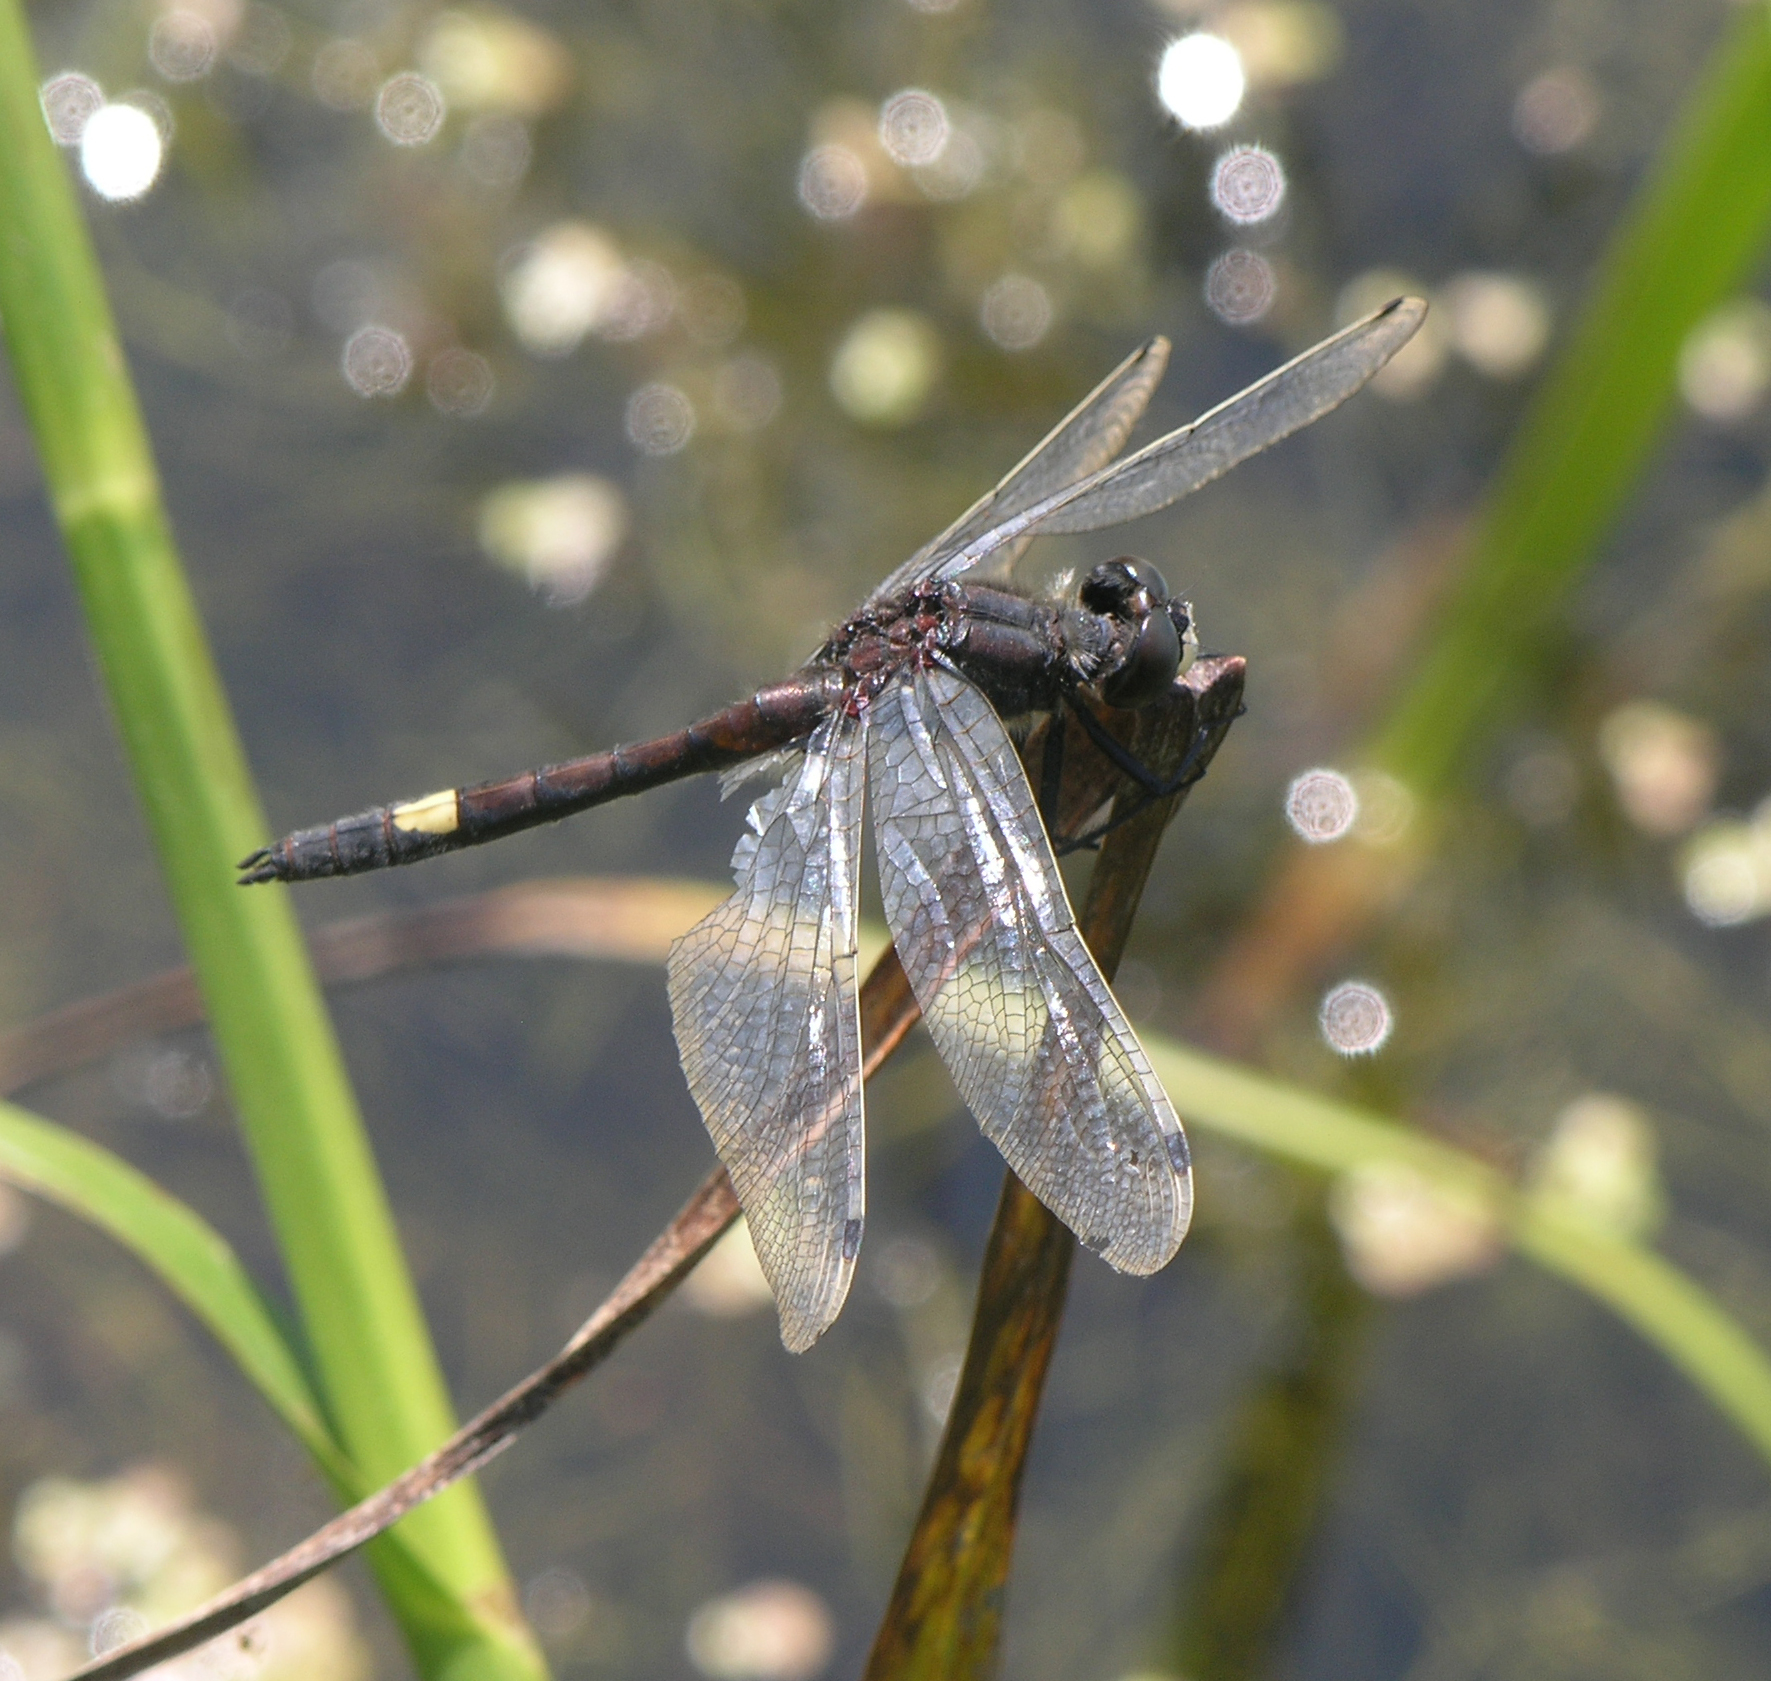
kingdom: Animalia
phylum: Arthropoda
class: Insecta
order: Odonata
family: Libellulidae
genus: Leucorrhinia
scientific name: Leucorrhinia pectoralis
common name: Yellow-spotted whiteface
